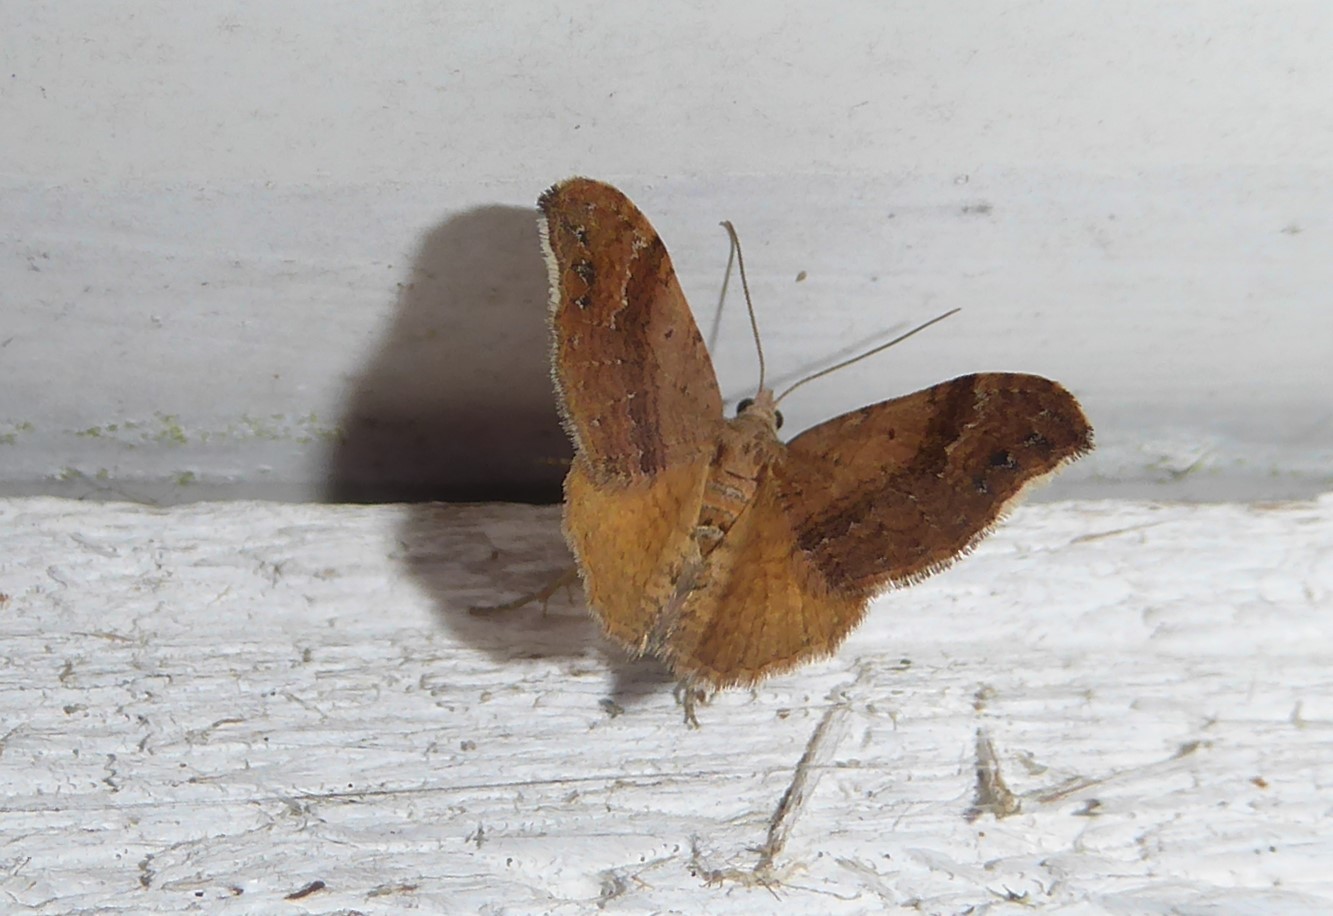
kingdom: Animalia
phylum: Arthropoda
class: Insecta
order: Lepidoptera
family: Geometridae
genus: Homodotis
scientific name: Homodotis megaspilata
